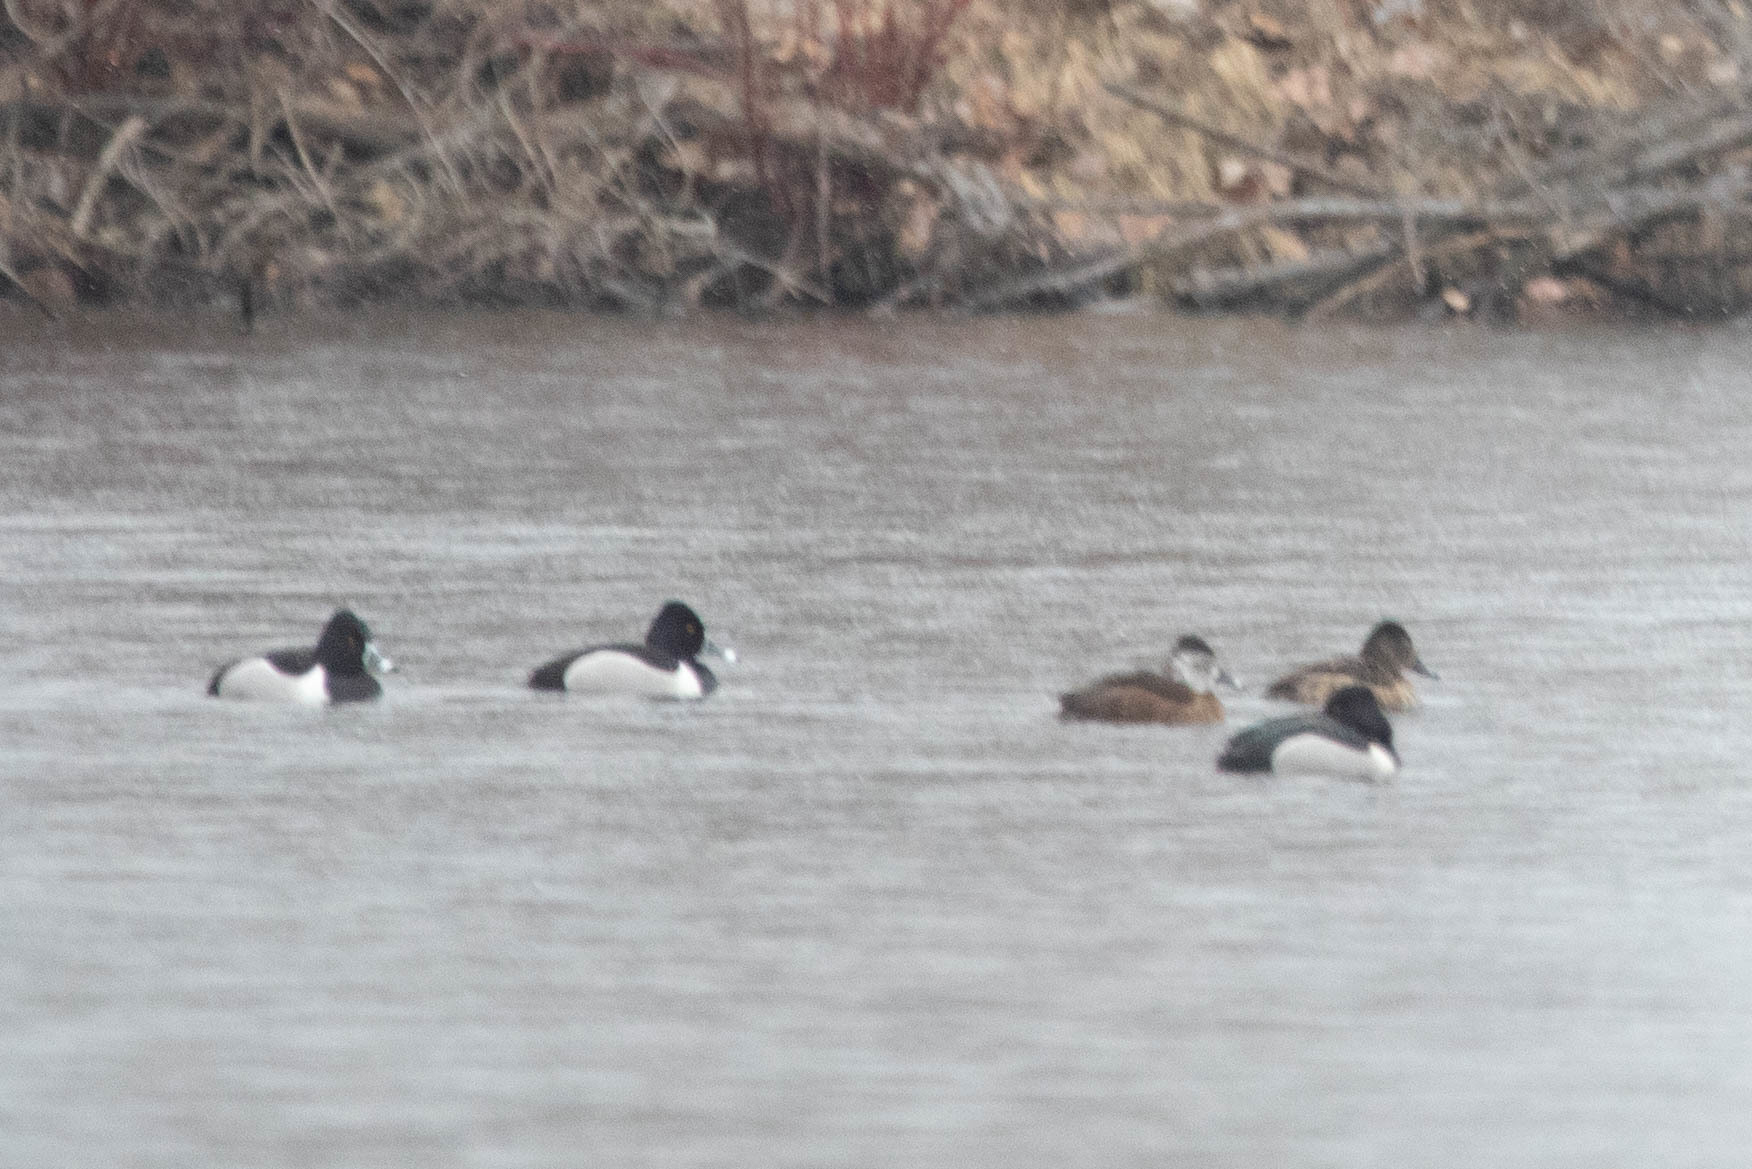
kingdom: Animalia
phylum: Chordata
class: Aves
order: Anseriformes
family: Anatidae
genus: Aythya
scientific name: Aythya collaris
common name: Ring-necked duck
